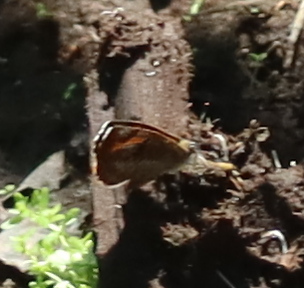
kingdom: Animalia
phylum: Arthropoda
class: Insecta
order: Lepidoptera
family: Lycaenidae
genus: Feniseca
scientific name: Feniseca tarquinius
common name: Harvester
